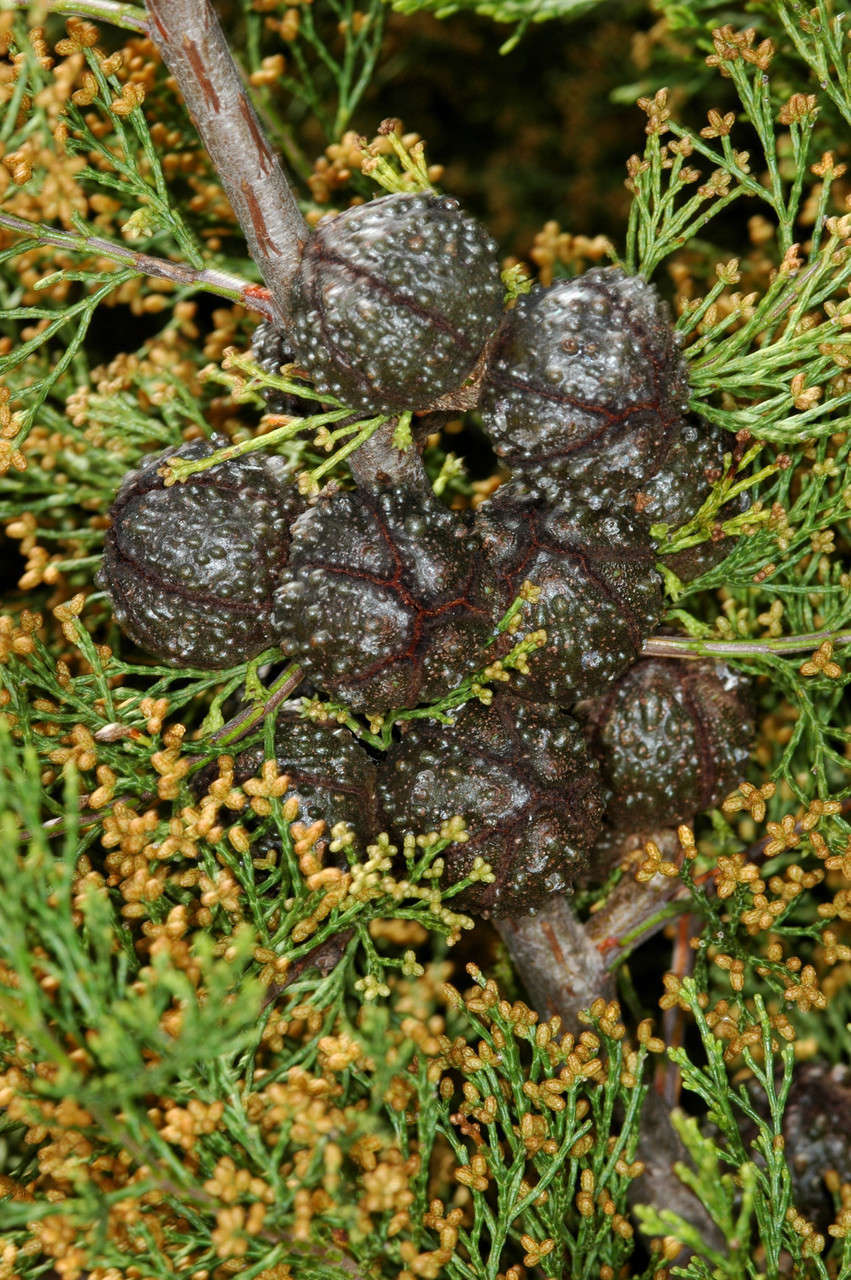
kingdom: Plantae
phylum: Tracheophyta
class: Pinopsida
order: Pinales
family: Cupressaceae
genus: Callitris
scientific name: Callitris verrucosa
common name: Scrub cypress-pine
